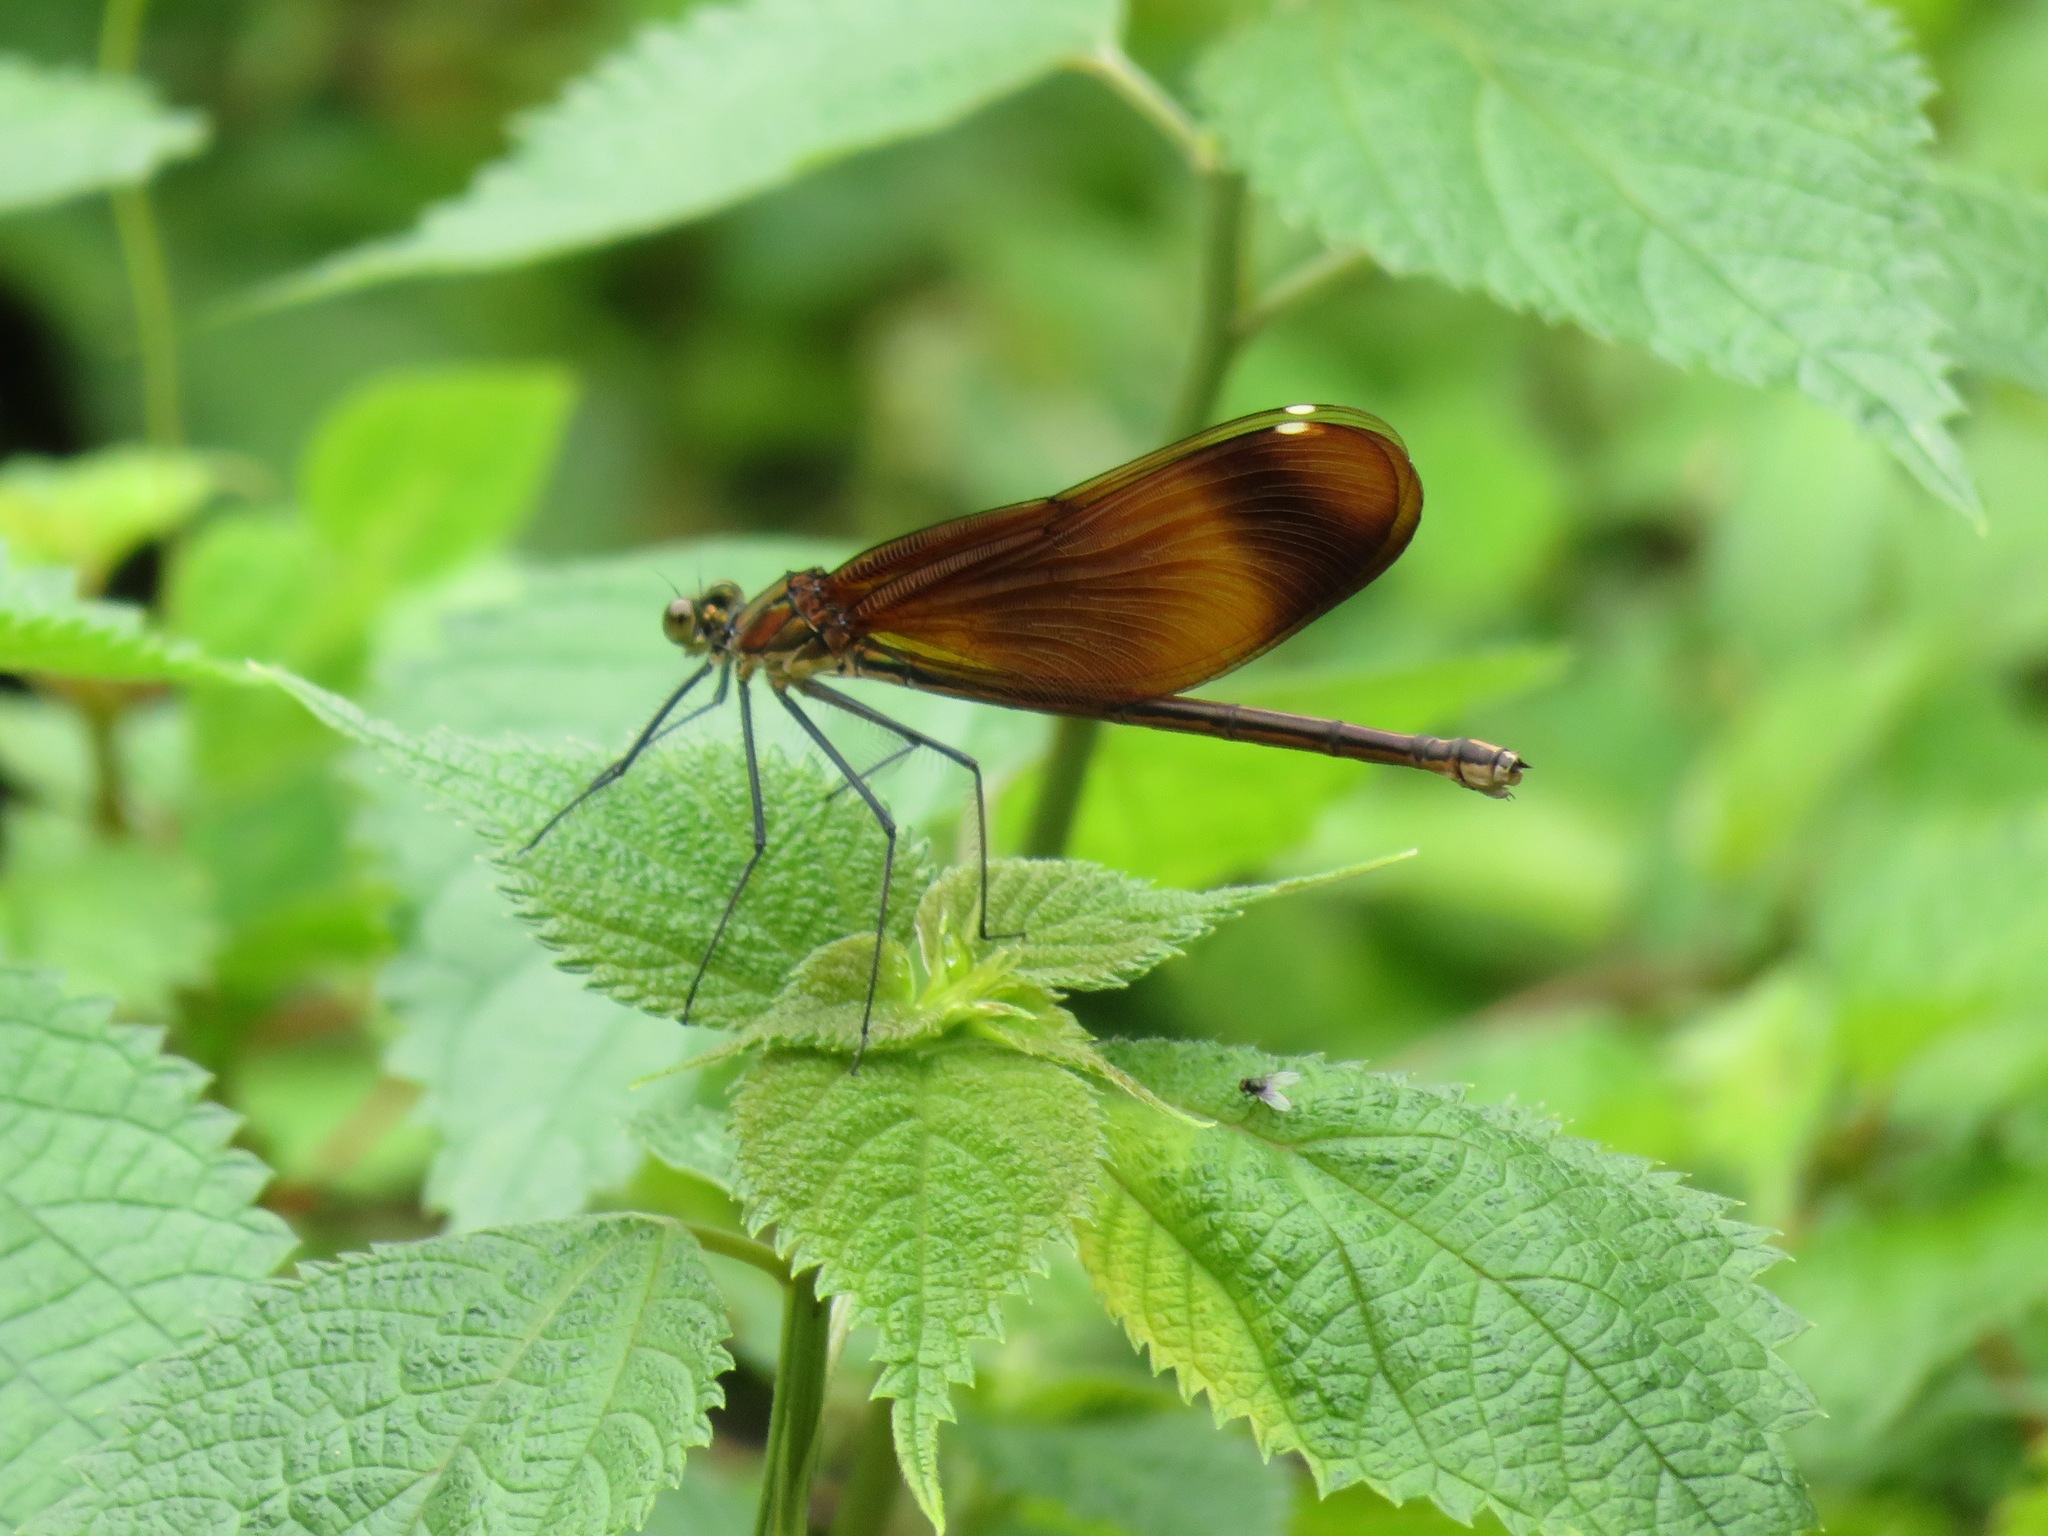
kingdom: Animalia
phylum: Arthropoda
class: Insecta
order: Odonata
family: Calopterygidae
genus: Calopteryx
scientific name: Calopteryx cornelia
